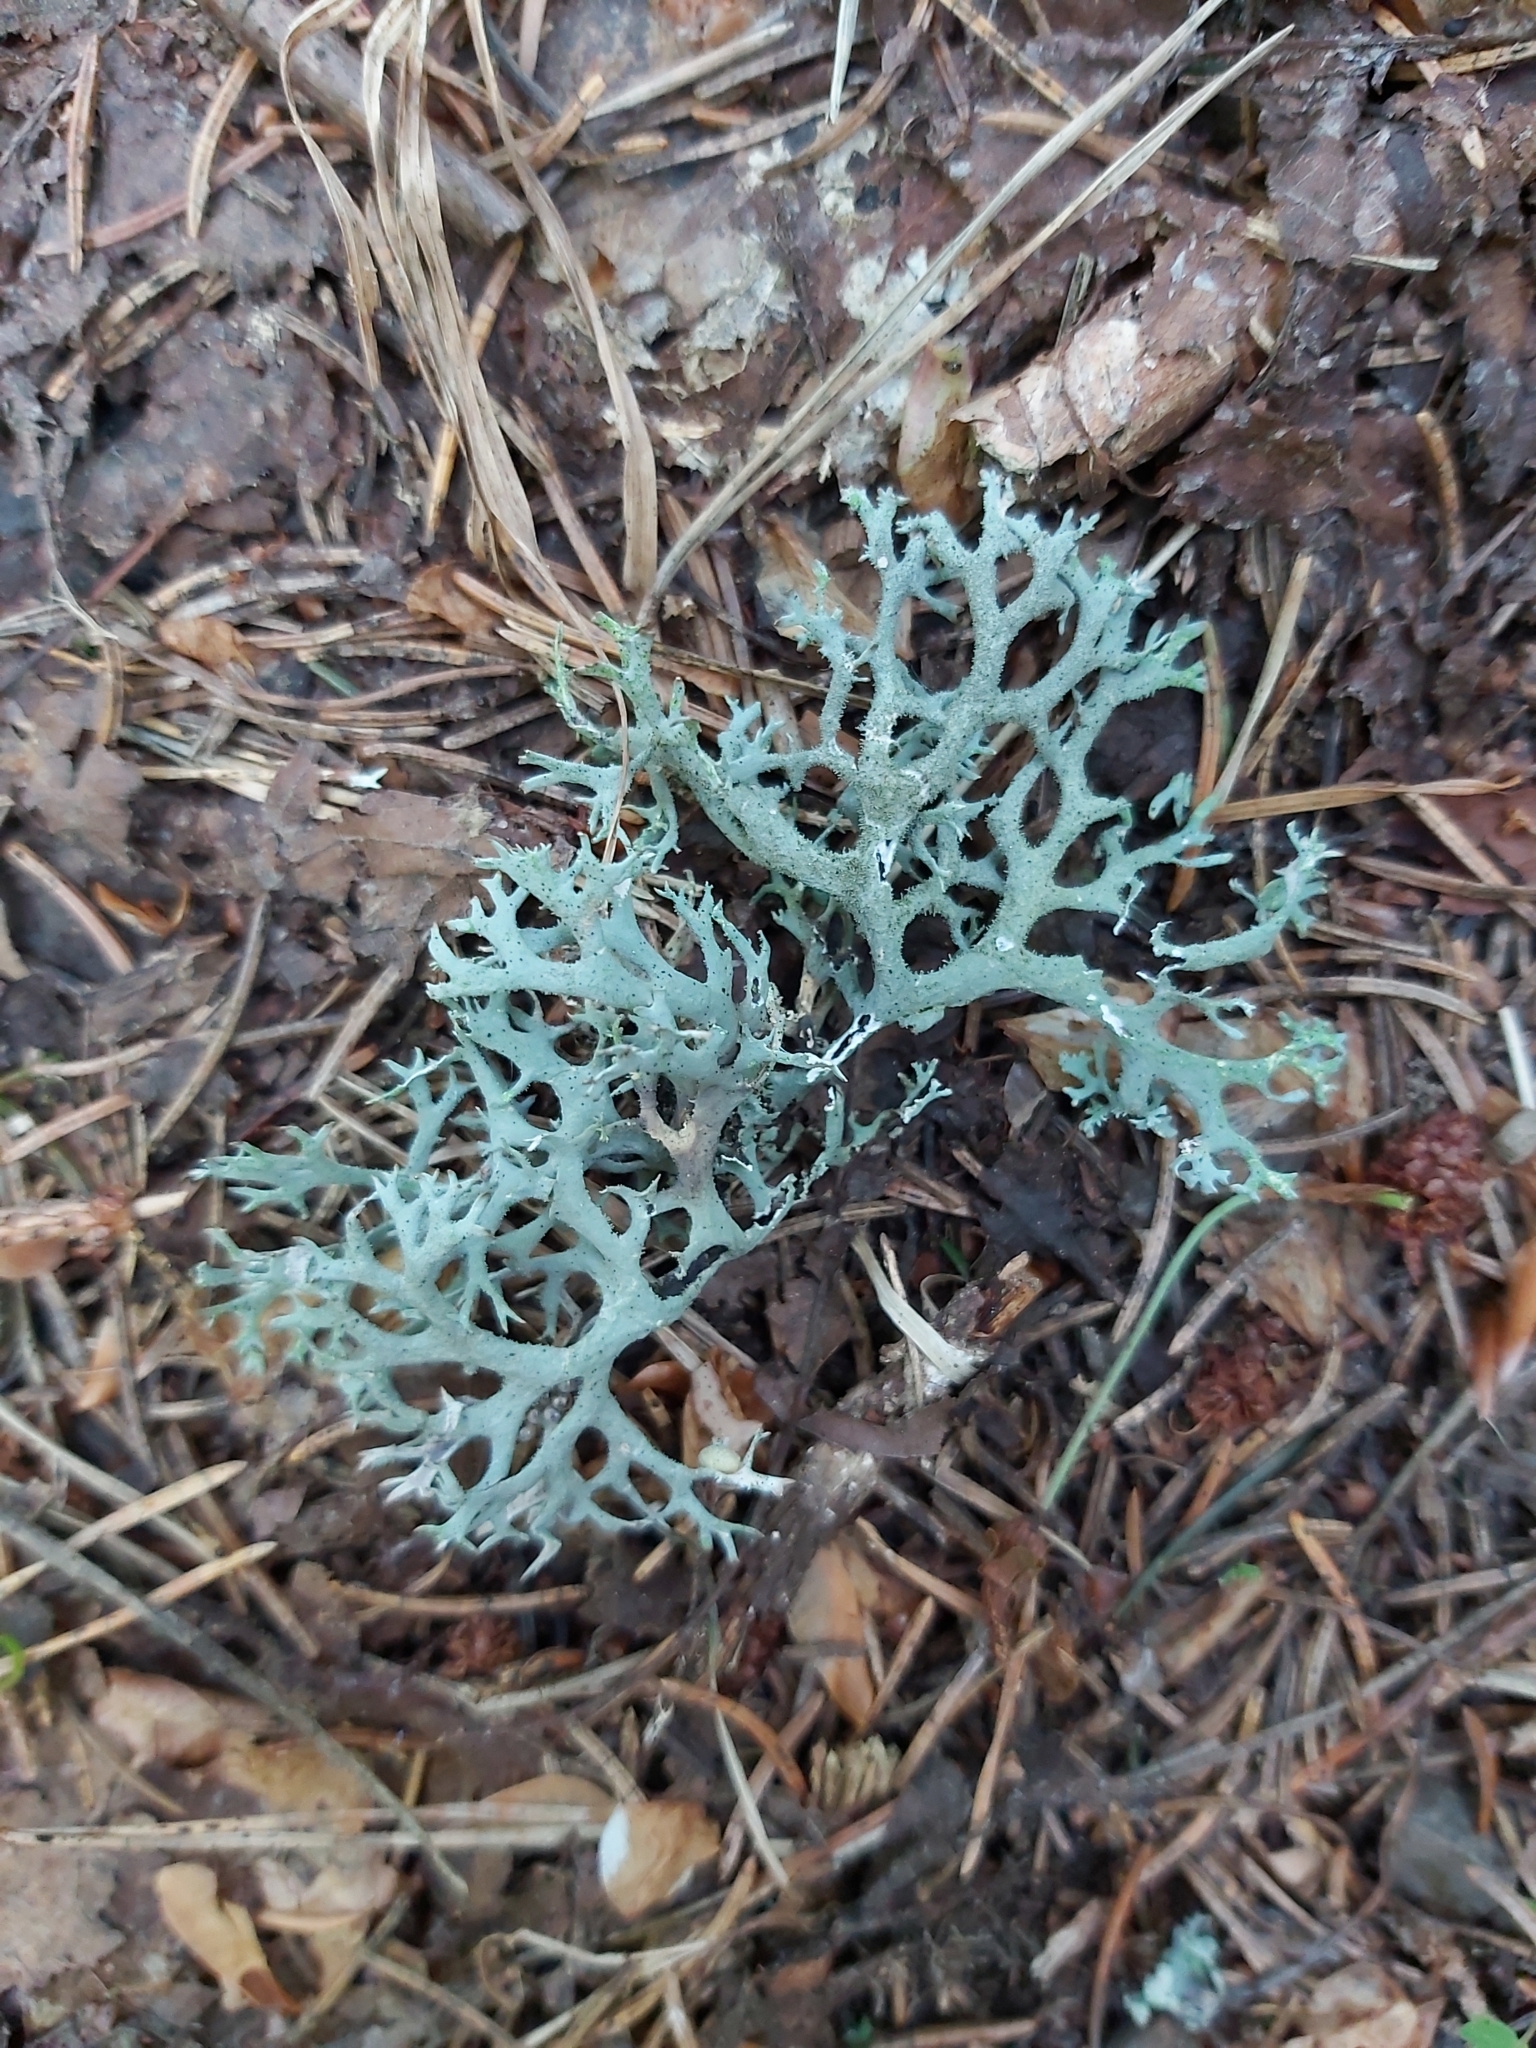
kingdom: Fungi
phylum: Ascomycota
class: Lecanoromycetes
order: Lecanorales
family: Parmeliaceae
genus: Pseudevernia
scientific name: Pseudevernia furfuracea
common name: Tree moss
